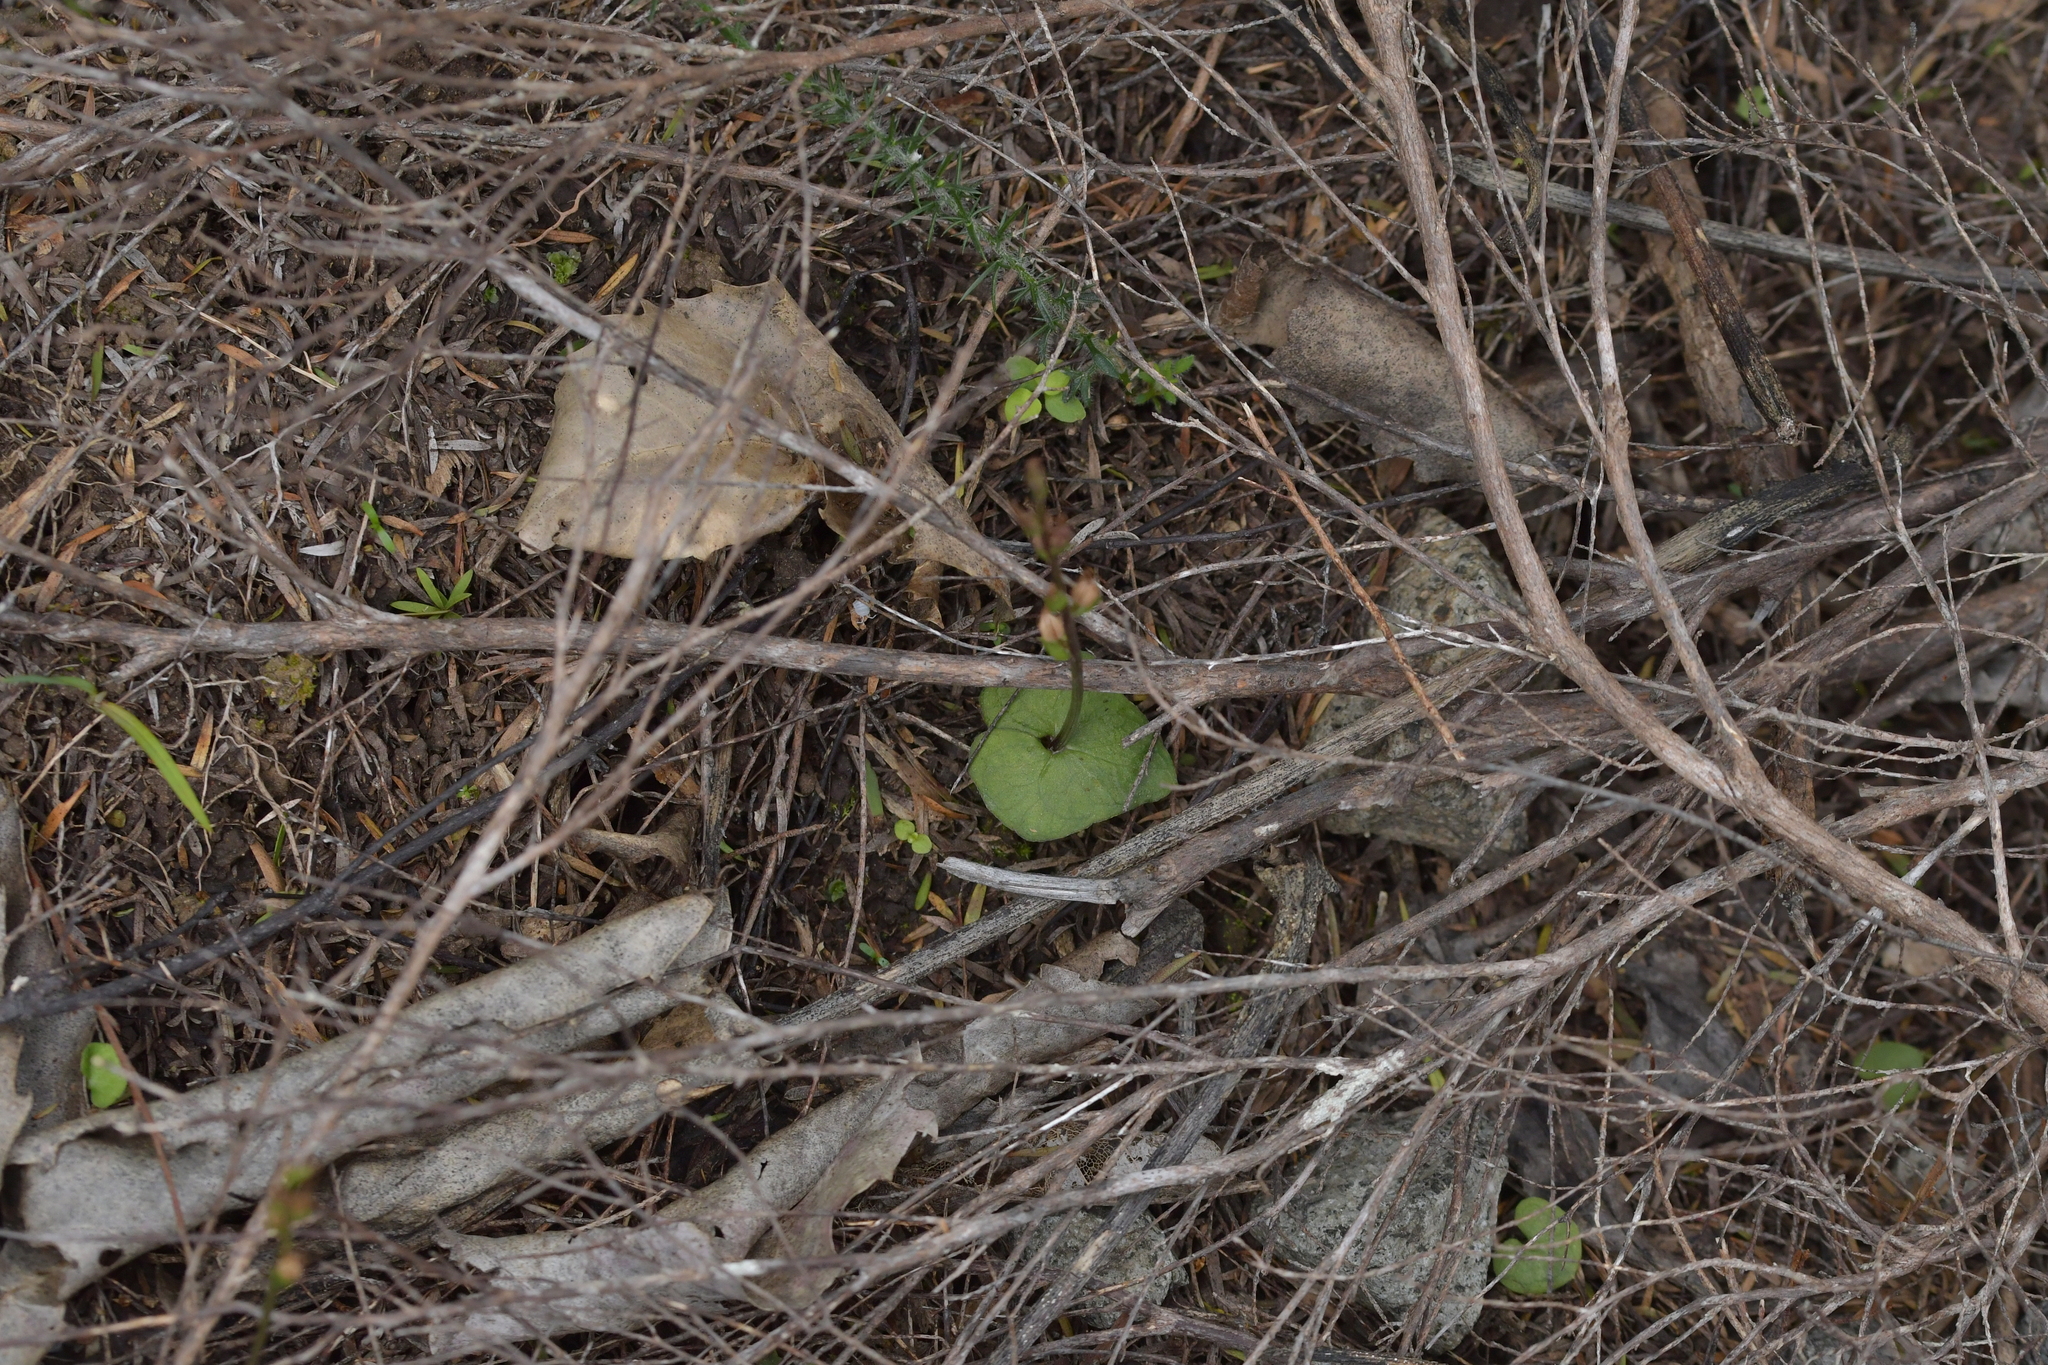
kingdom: Plantae
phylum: Tracheophyta
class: Liliopsida
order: Asparagales
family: Orchidaceae
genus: Acianthus
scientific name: Acianthus sinclairii
